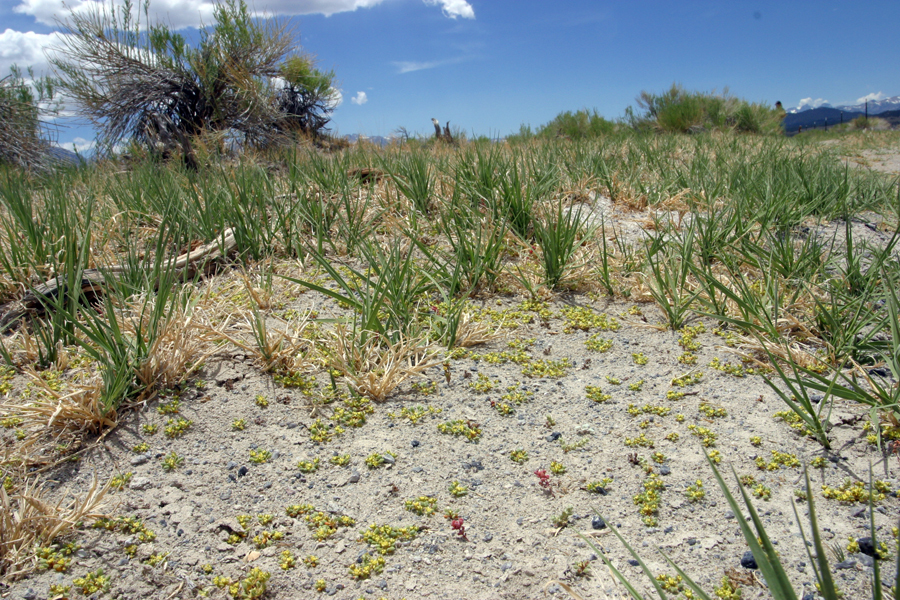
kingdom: Plantae
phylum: Tracheophyta
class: Magnoliopsida
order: Caryophyllales
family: Polygonaceae
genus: Goodmania
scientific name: Goodmania luteola
